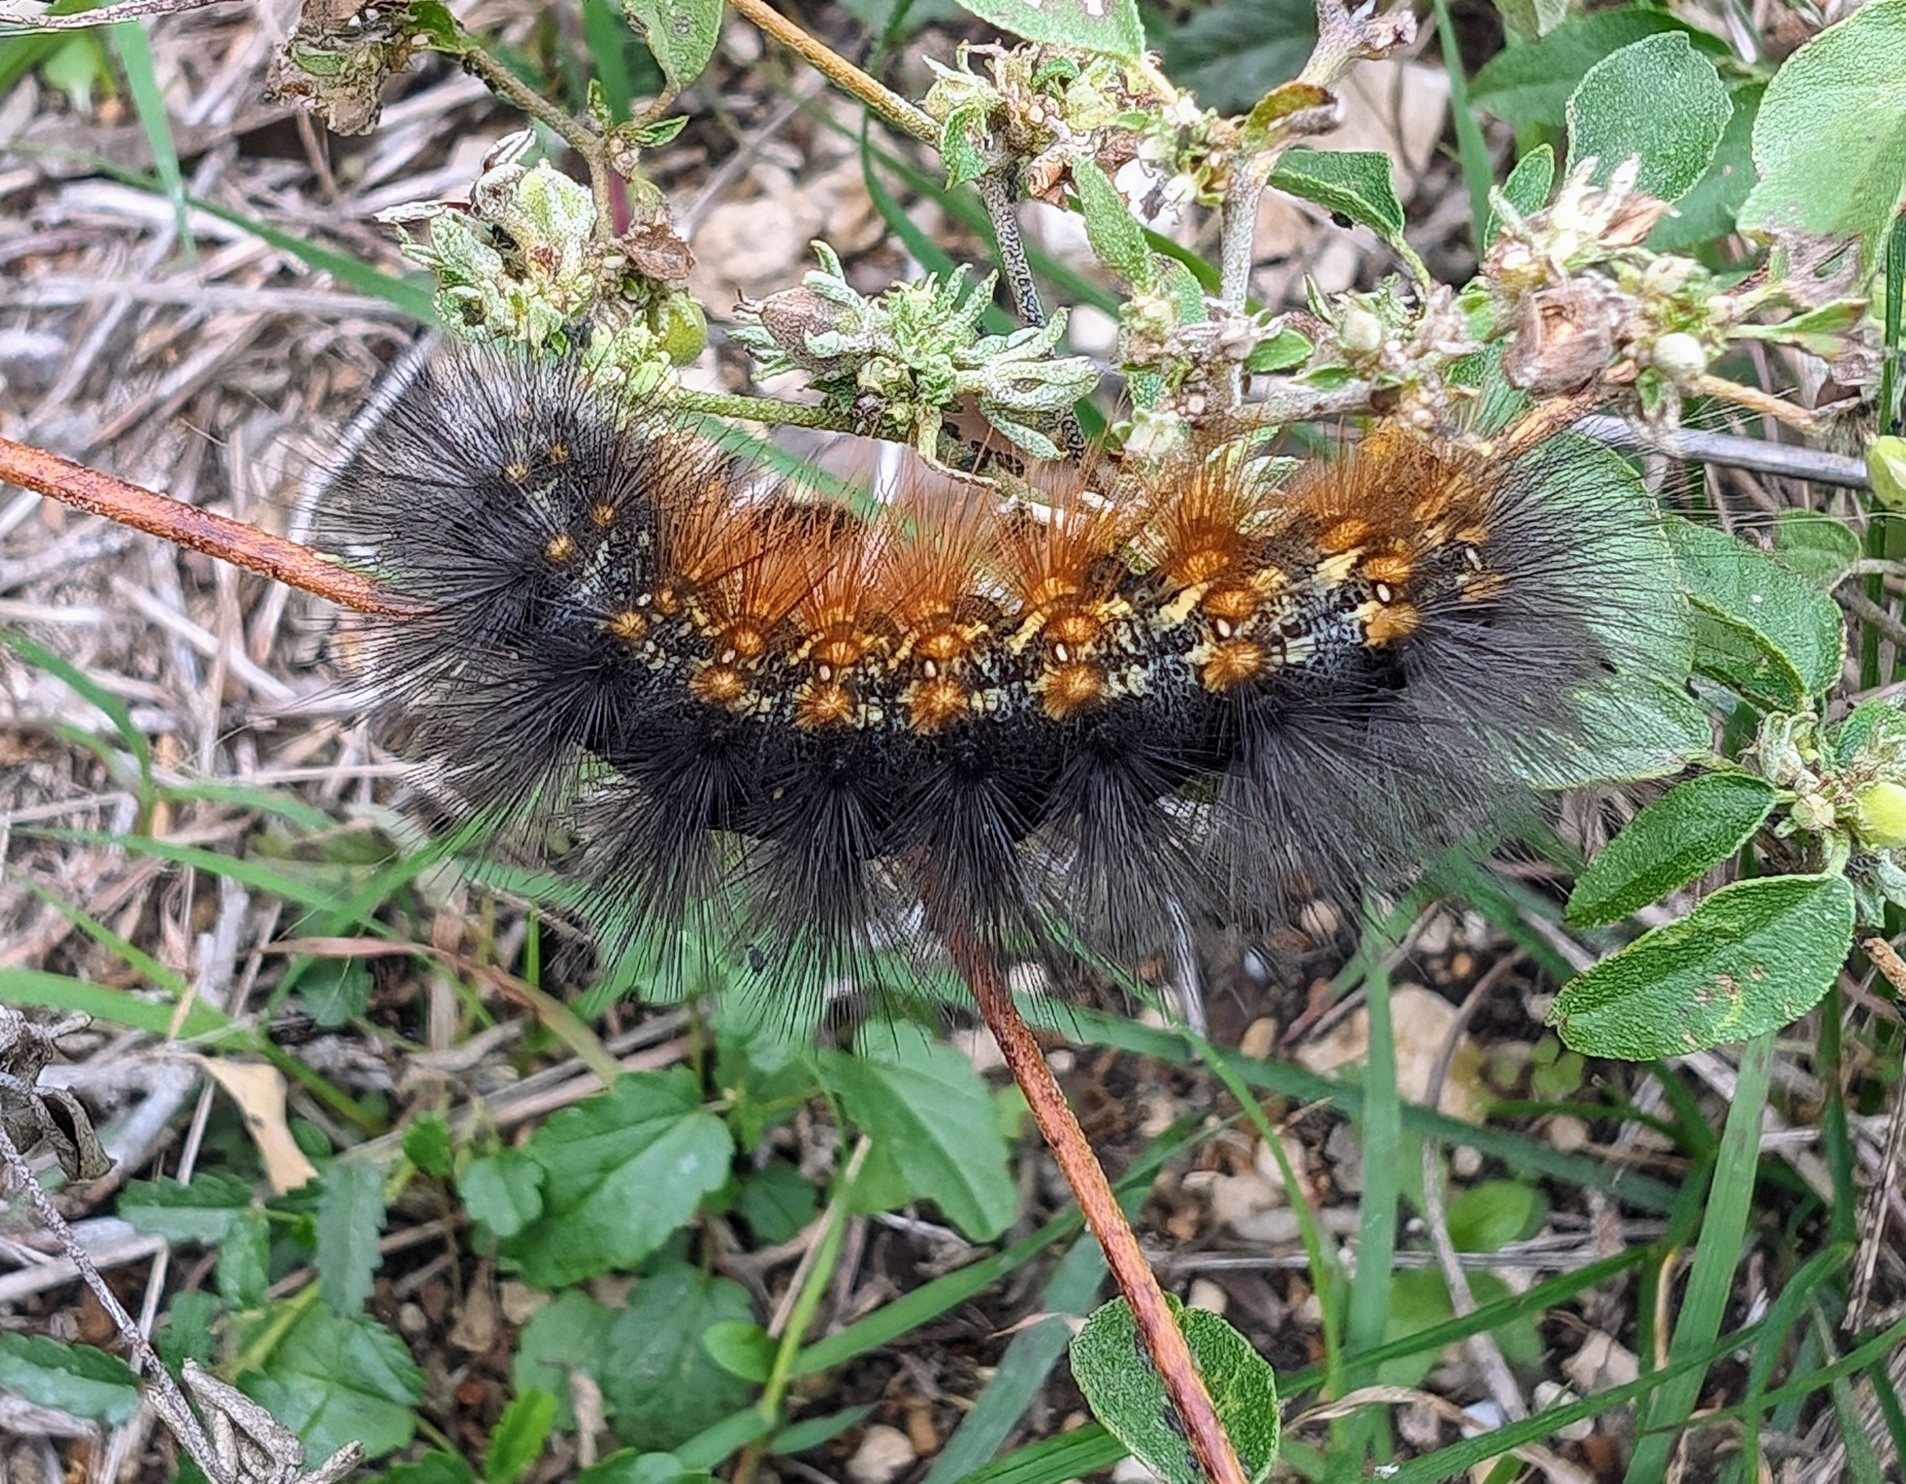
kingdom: Animalia
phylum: Arthropoda
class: Insecta
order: Lepidoptera
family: Erebidae
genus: Estigmene
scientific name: Estigmene acrea
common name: Salt marsh moth
